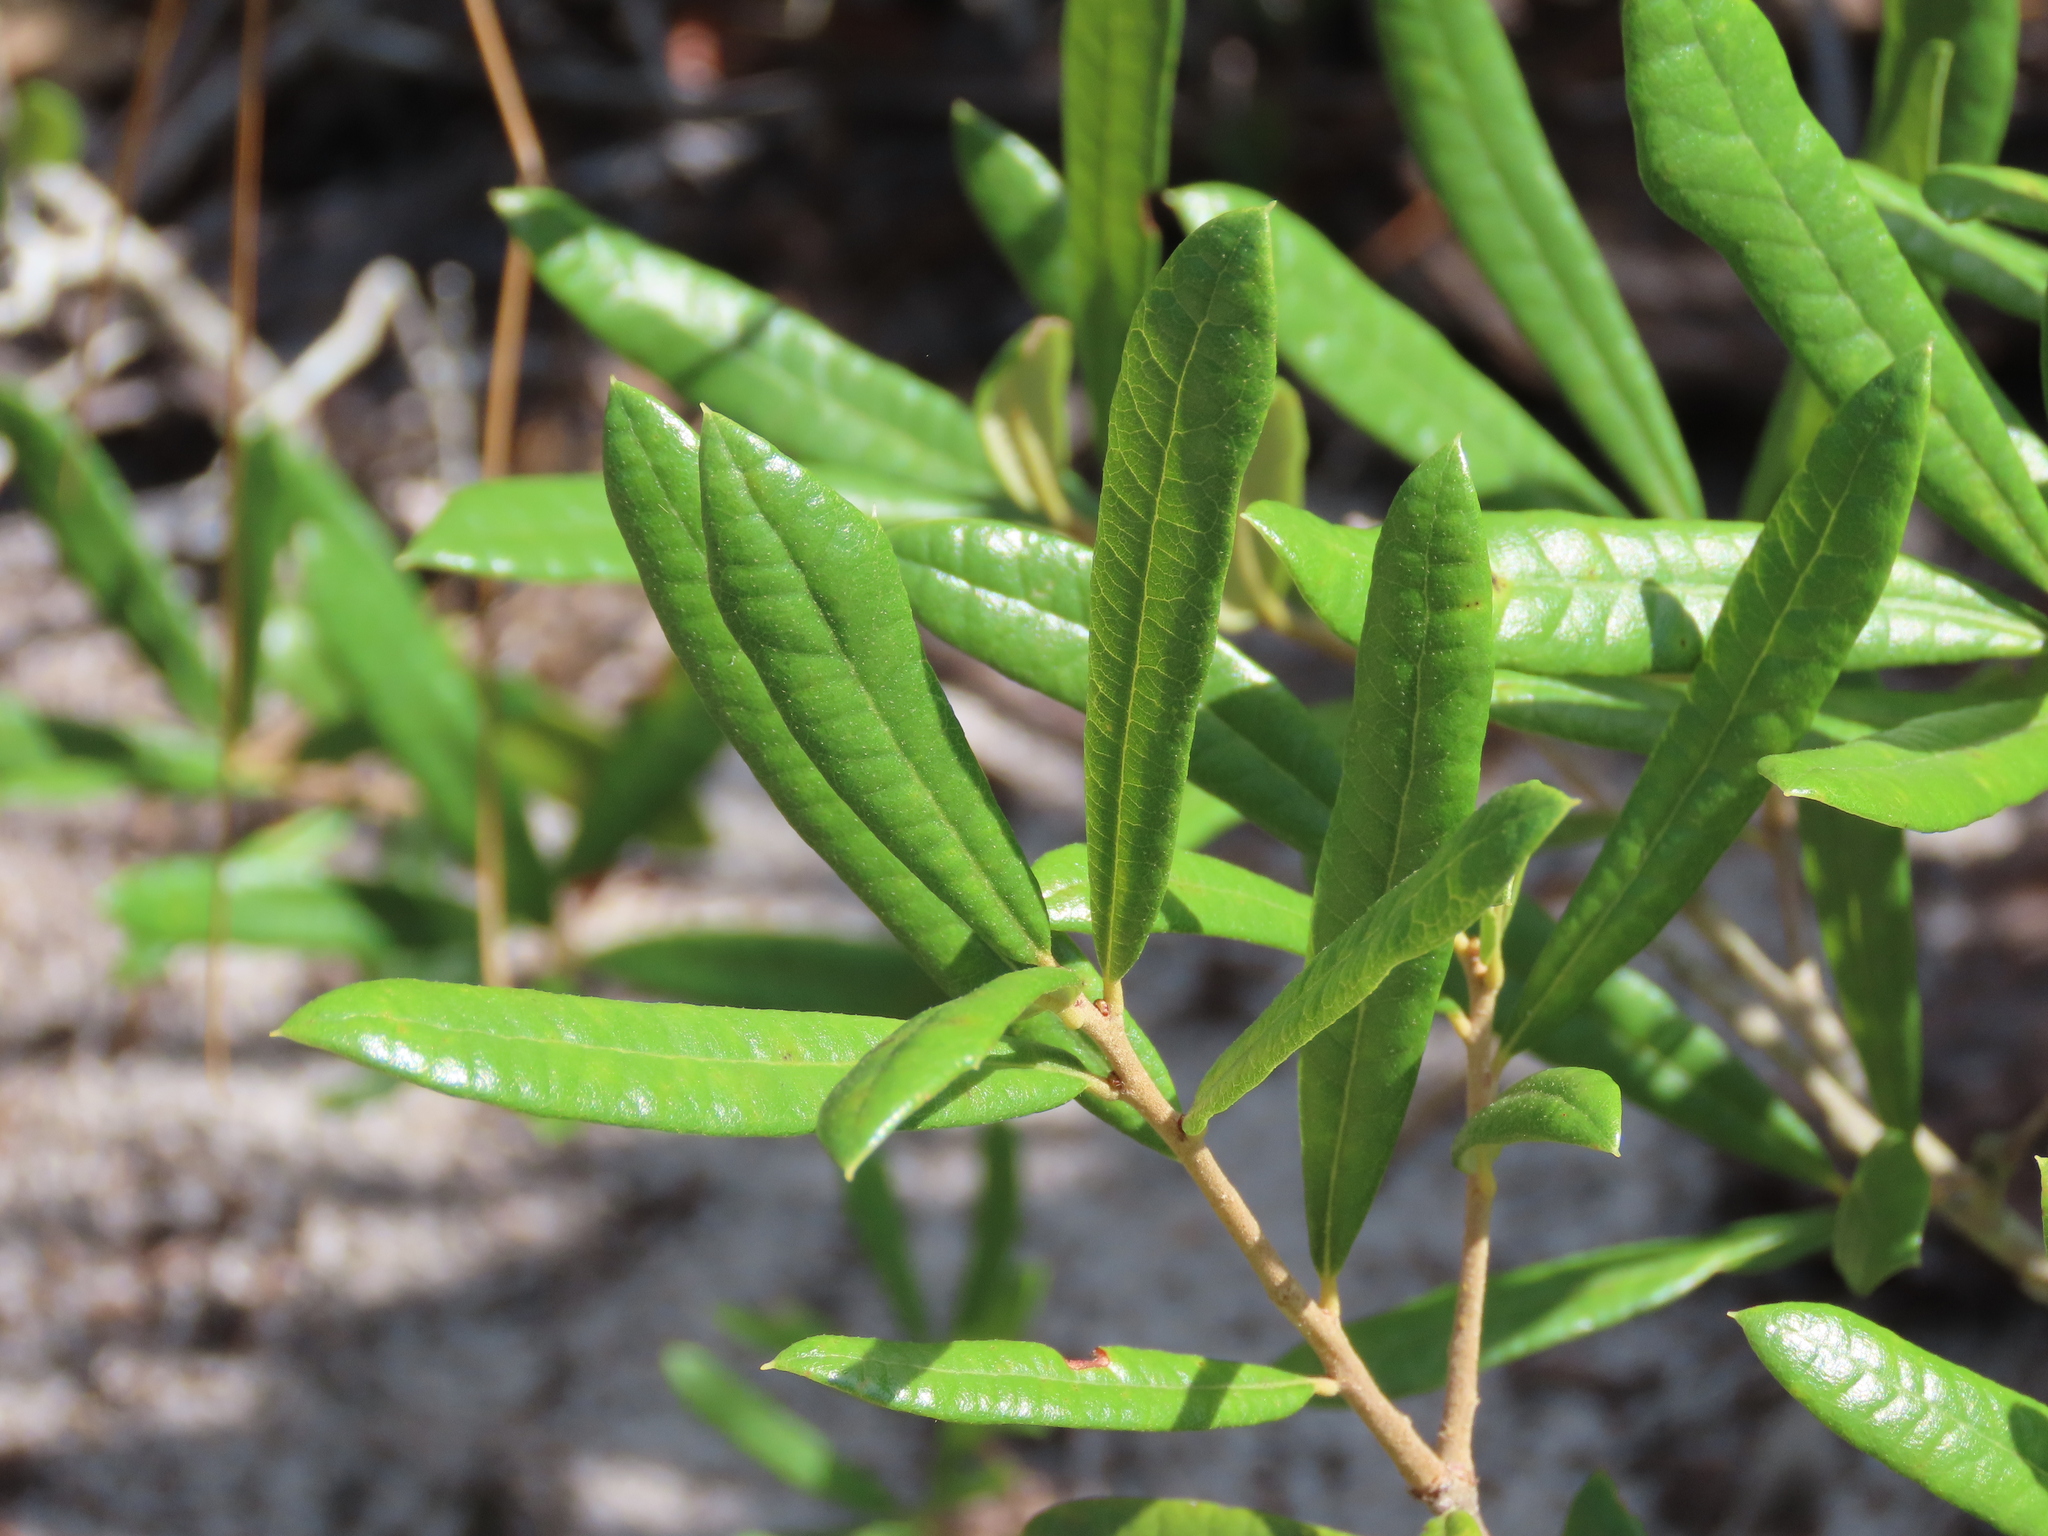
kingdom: Plantae
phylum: Tracheophyta
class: Magnoliopsida
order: Fagales
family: Fagaceae
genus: Quercus
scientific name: Quercus geminata
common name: Sand live oak
